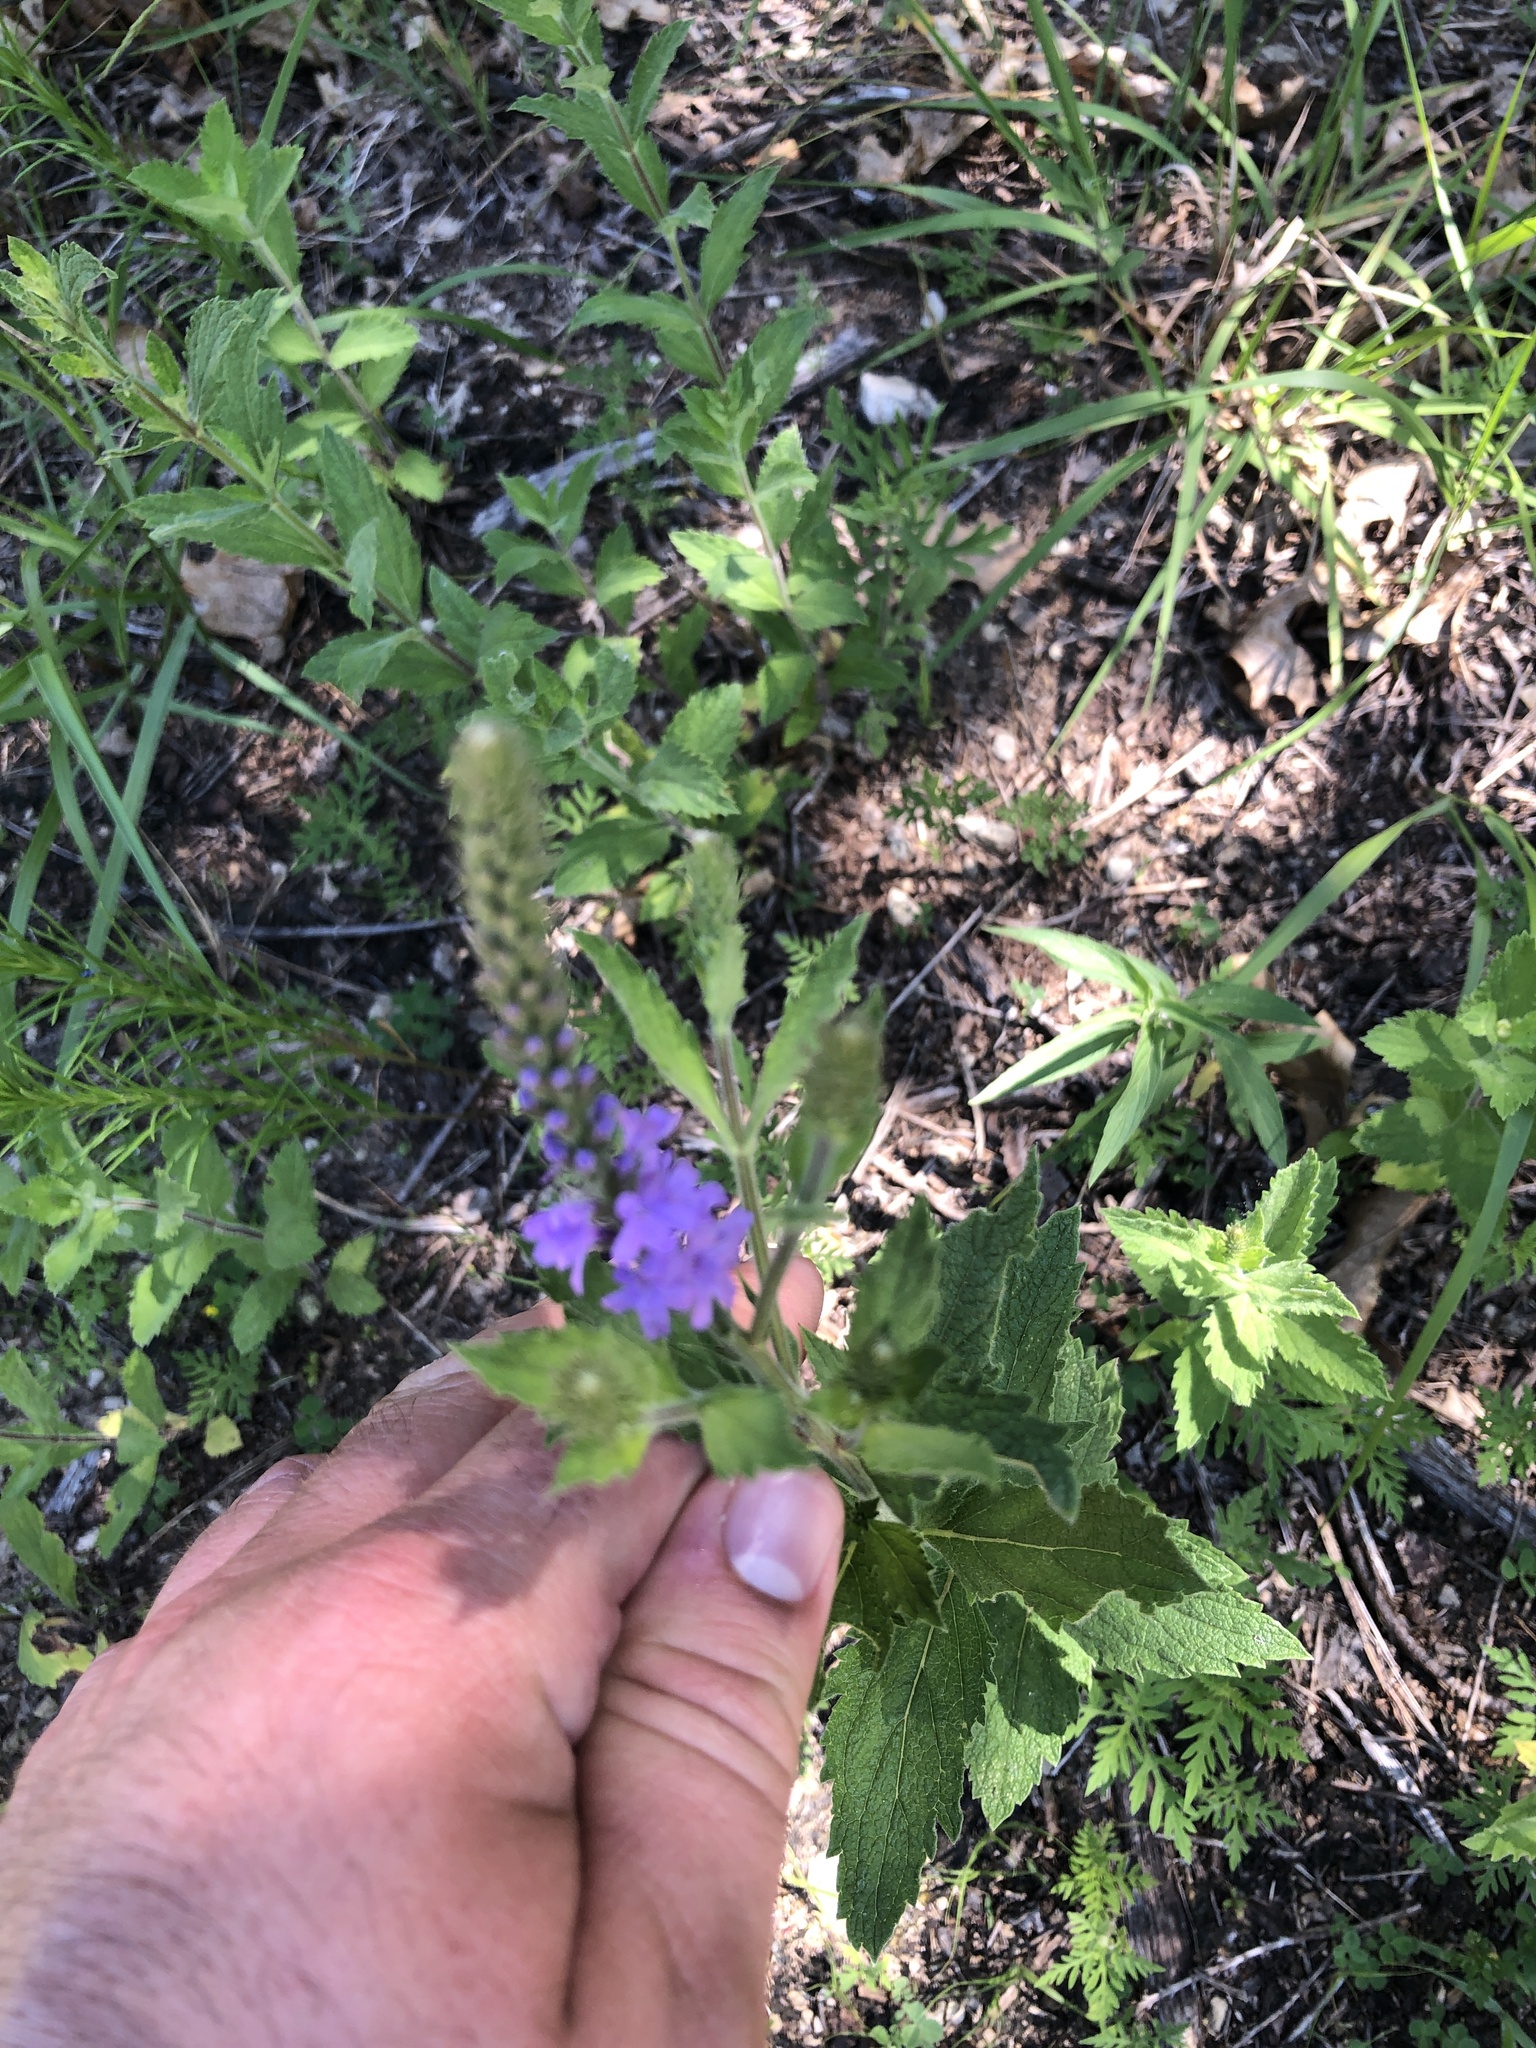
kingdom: Plantae
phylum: Tracheophyta
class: Magnoliopsida
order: Lamiales
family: Verbenaceae
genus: Verbena
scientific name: Verbena stricta
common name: Hoary vervain
